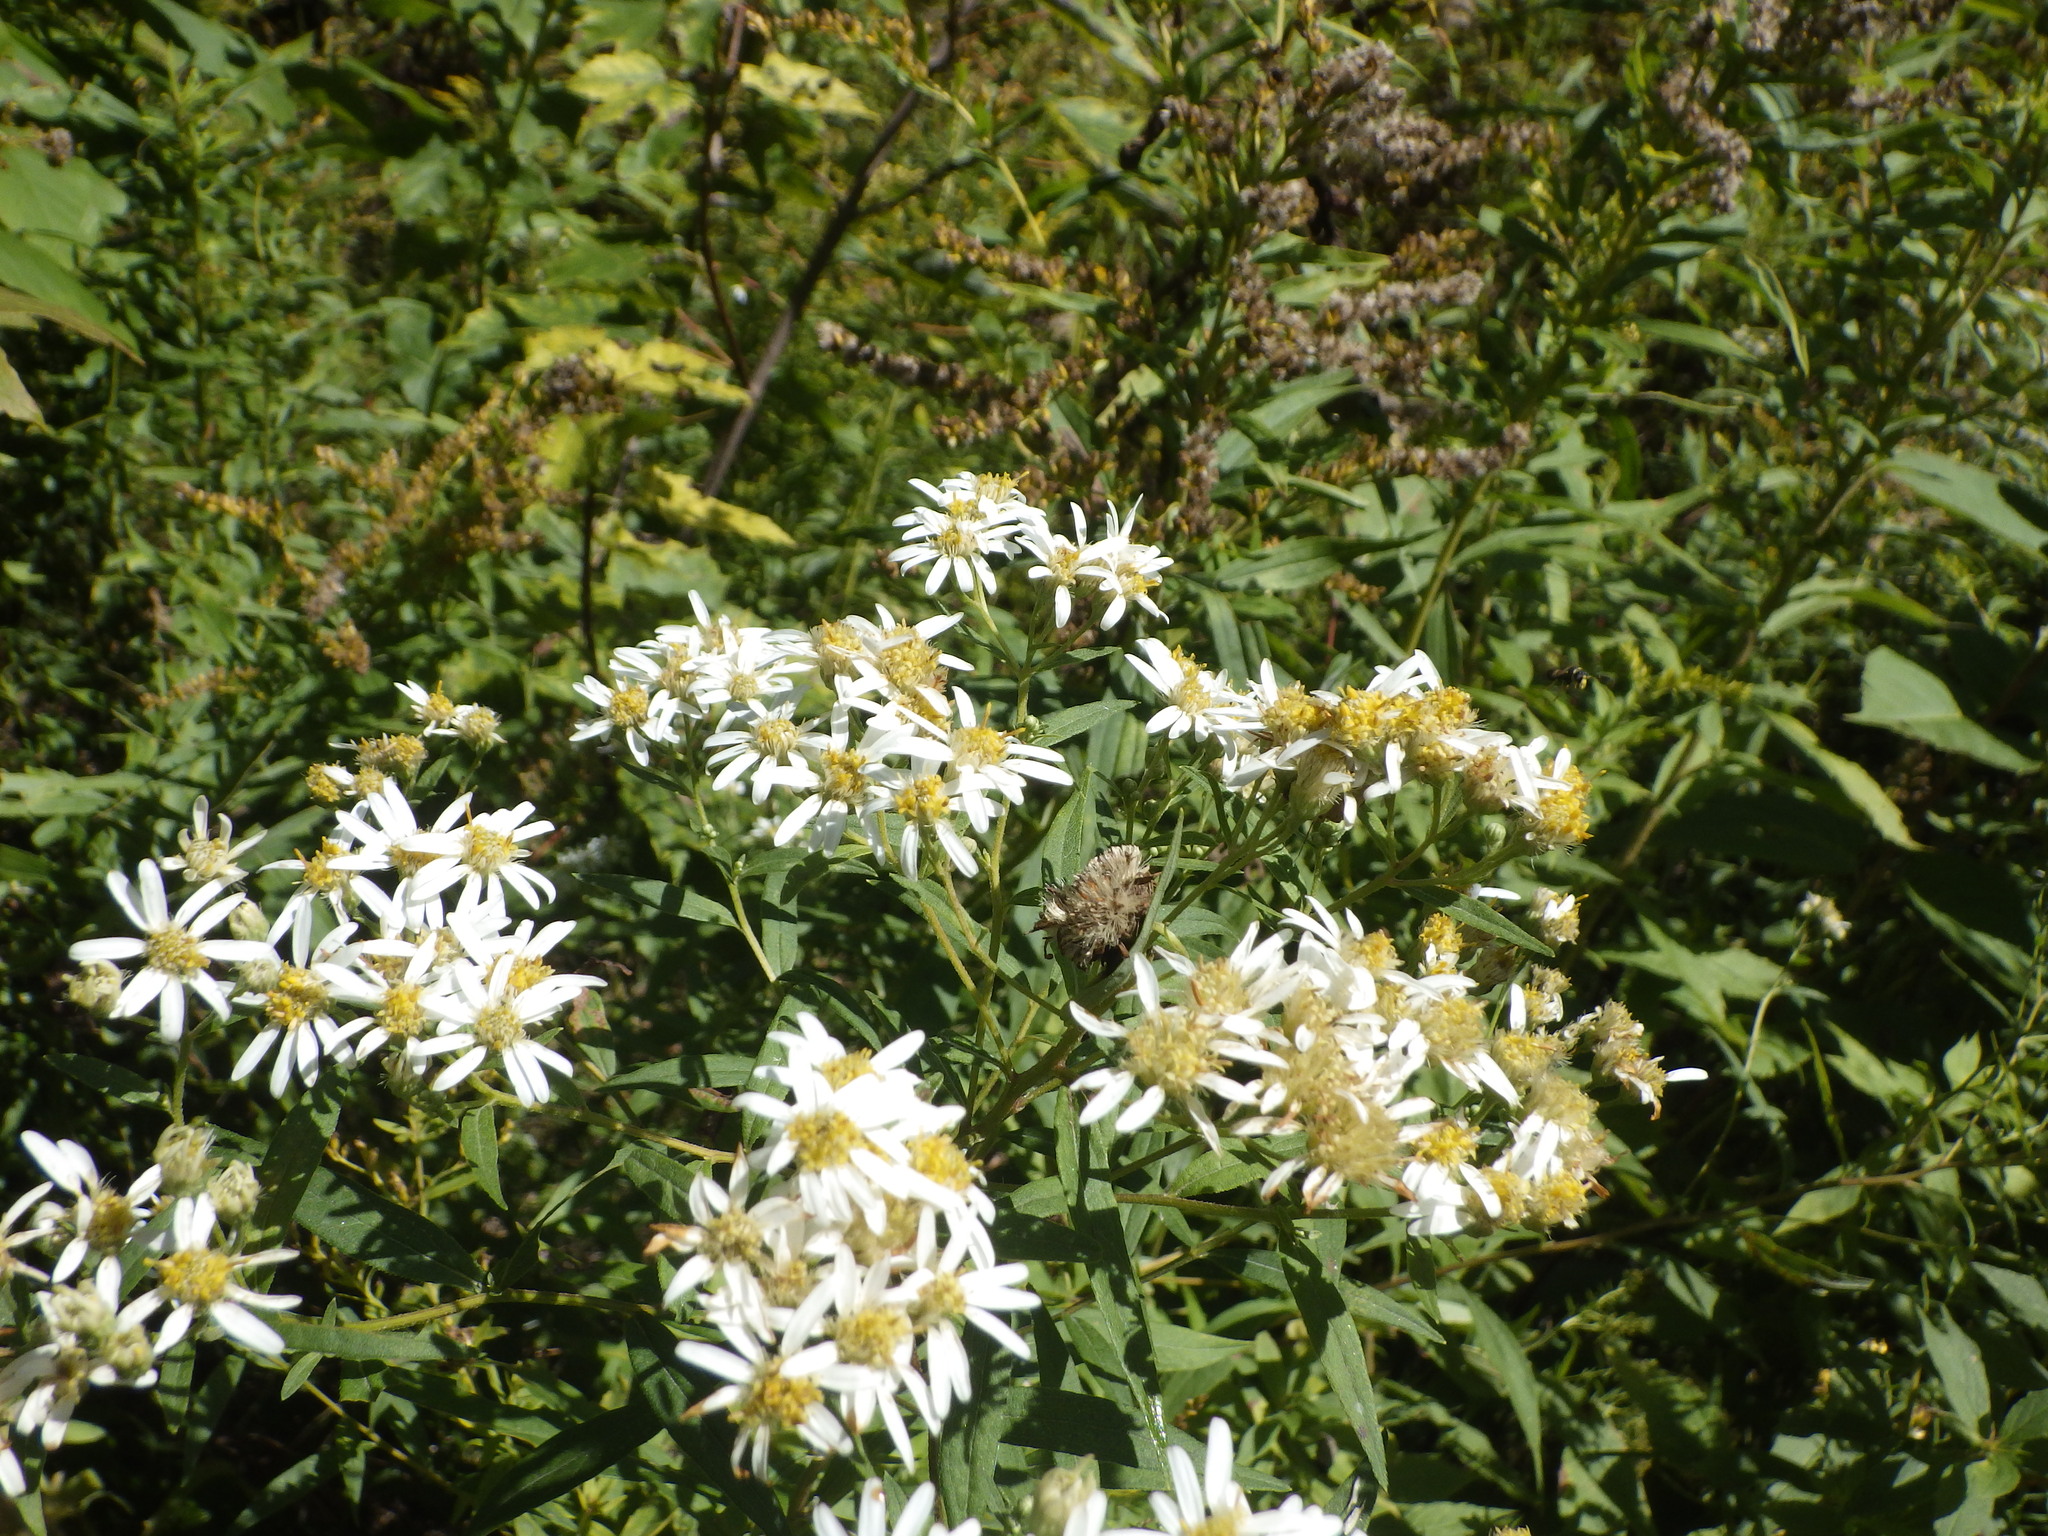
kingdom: Plantae
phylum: Tracheophyta
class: Magnoliopsida
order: Asterales
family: Asteraceae
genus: Doellingeria
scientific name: Doellingeria umbellata
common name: Flat-top white aster
